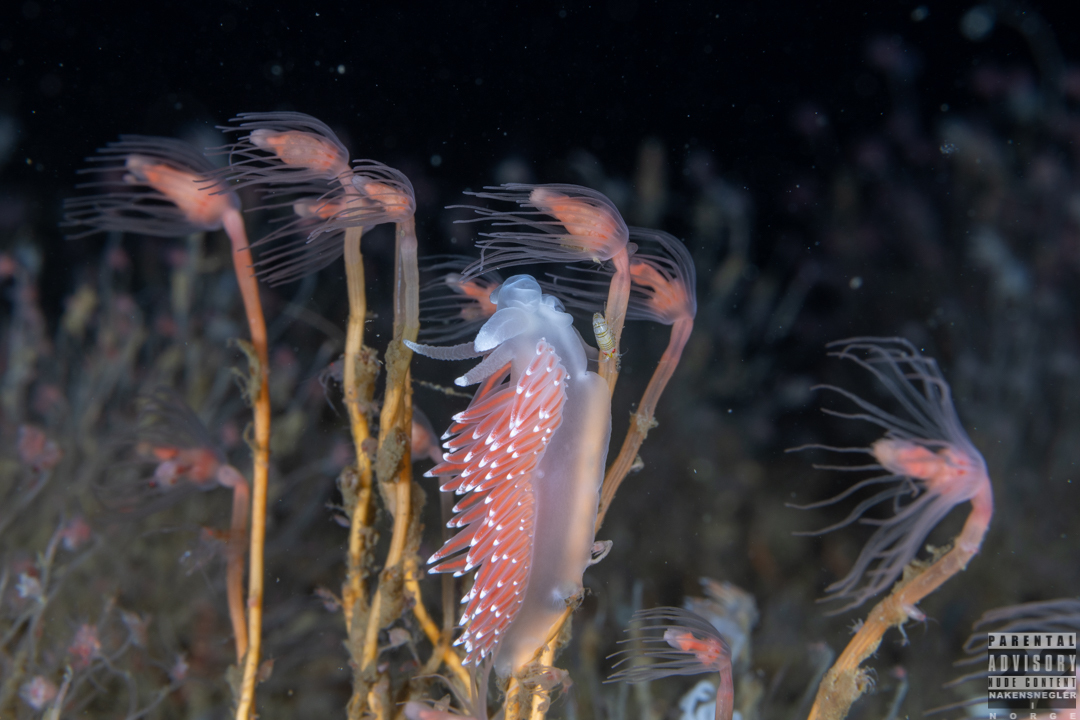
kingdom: Animalia
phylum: Mollusca
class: Gastropoda
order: Nudibranchia
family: Coryphellidae
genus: Coryphella
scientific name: Coryphella nobilis
